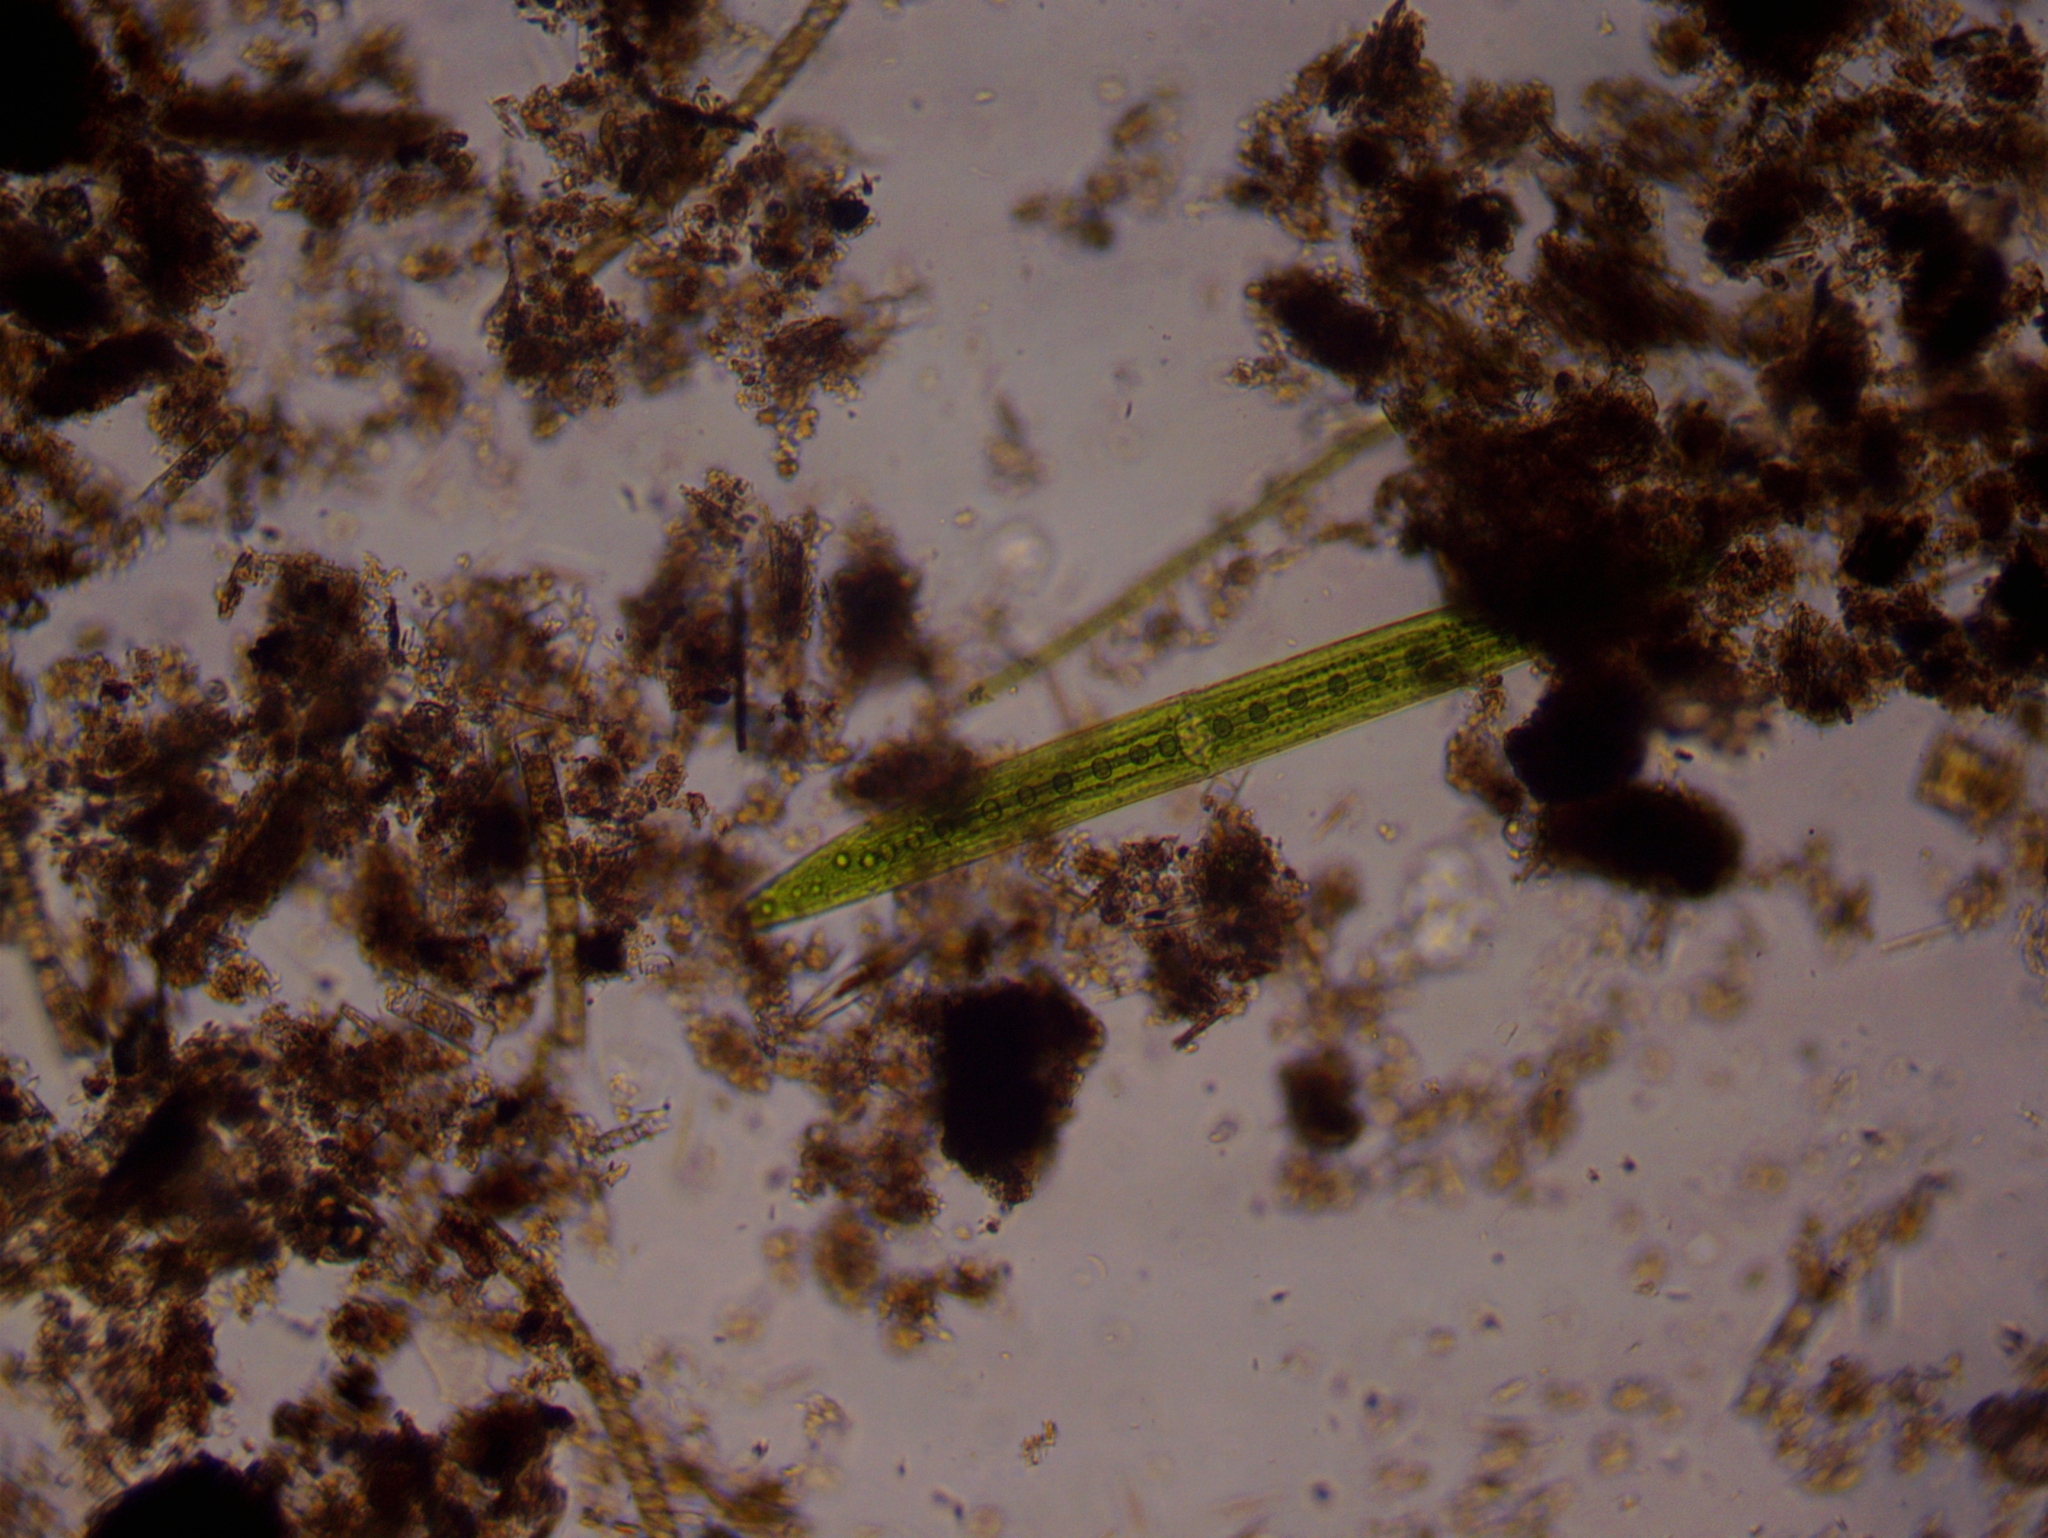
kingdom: Plantae
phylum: Charophyta
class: Zygnematophyceae
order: Zygnematales
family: Closteriaceae
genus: Closterium
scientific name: Closterium acerosum
